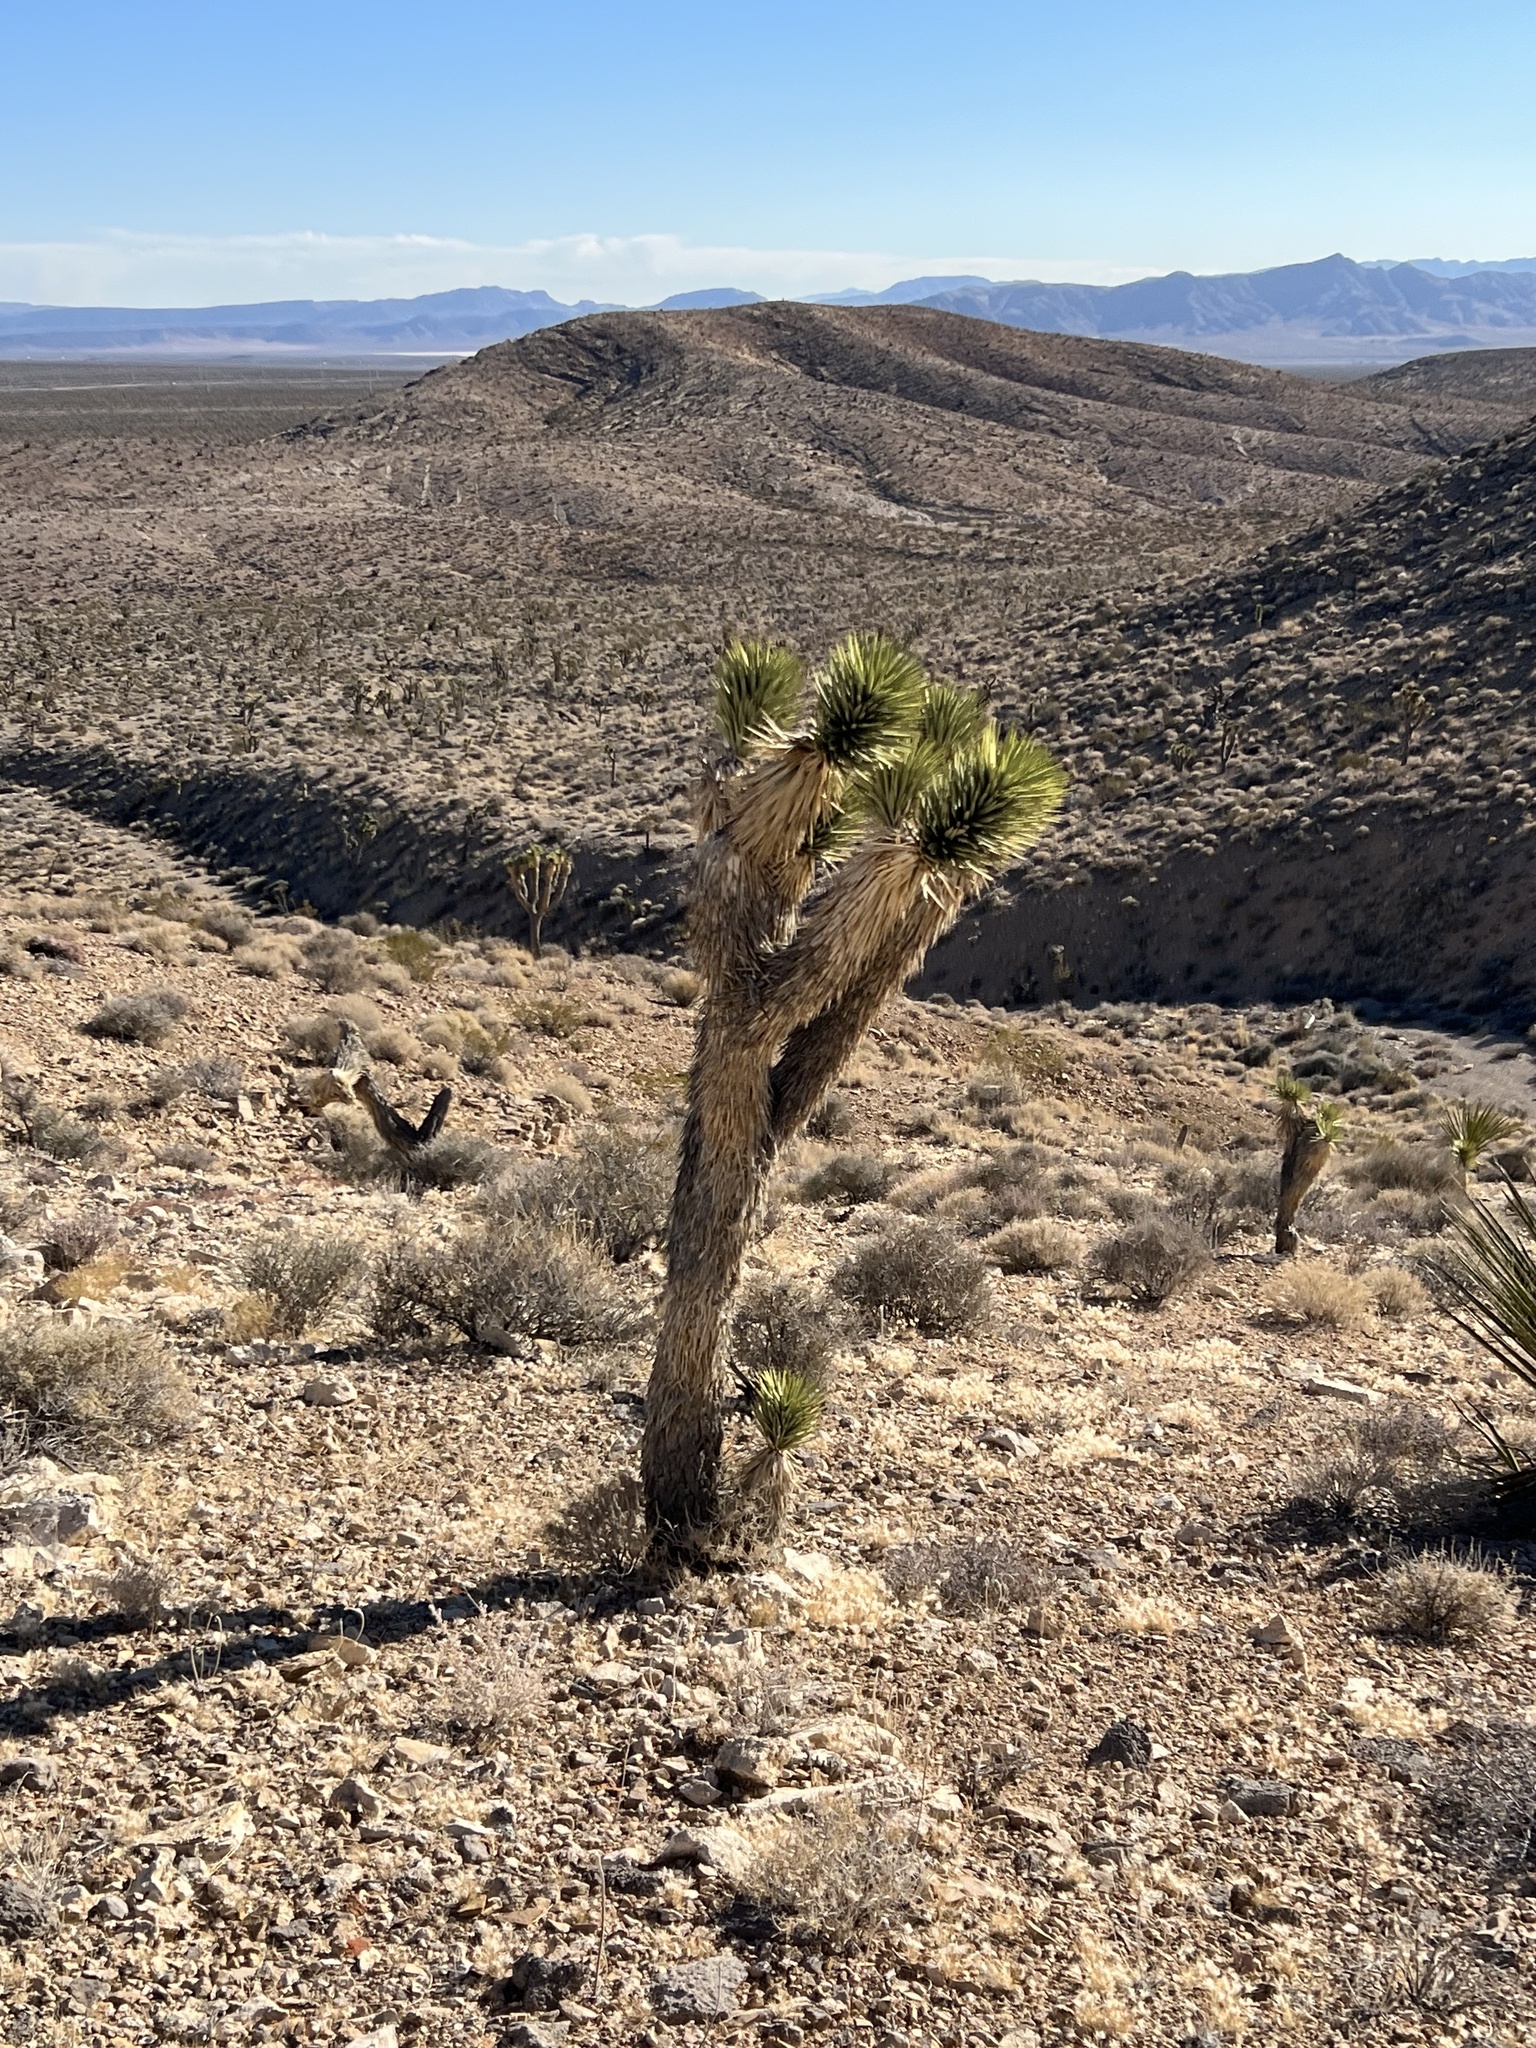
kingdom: Plantae
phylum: Tracheophyta
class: Liliopsida
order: Asparagales
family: Asparagaceae
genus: Yucca
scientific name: Yucca brevifolia
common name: Joshua tree
